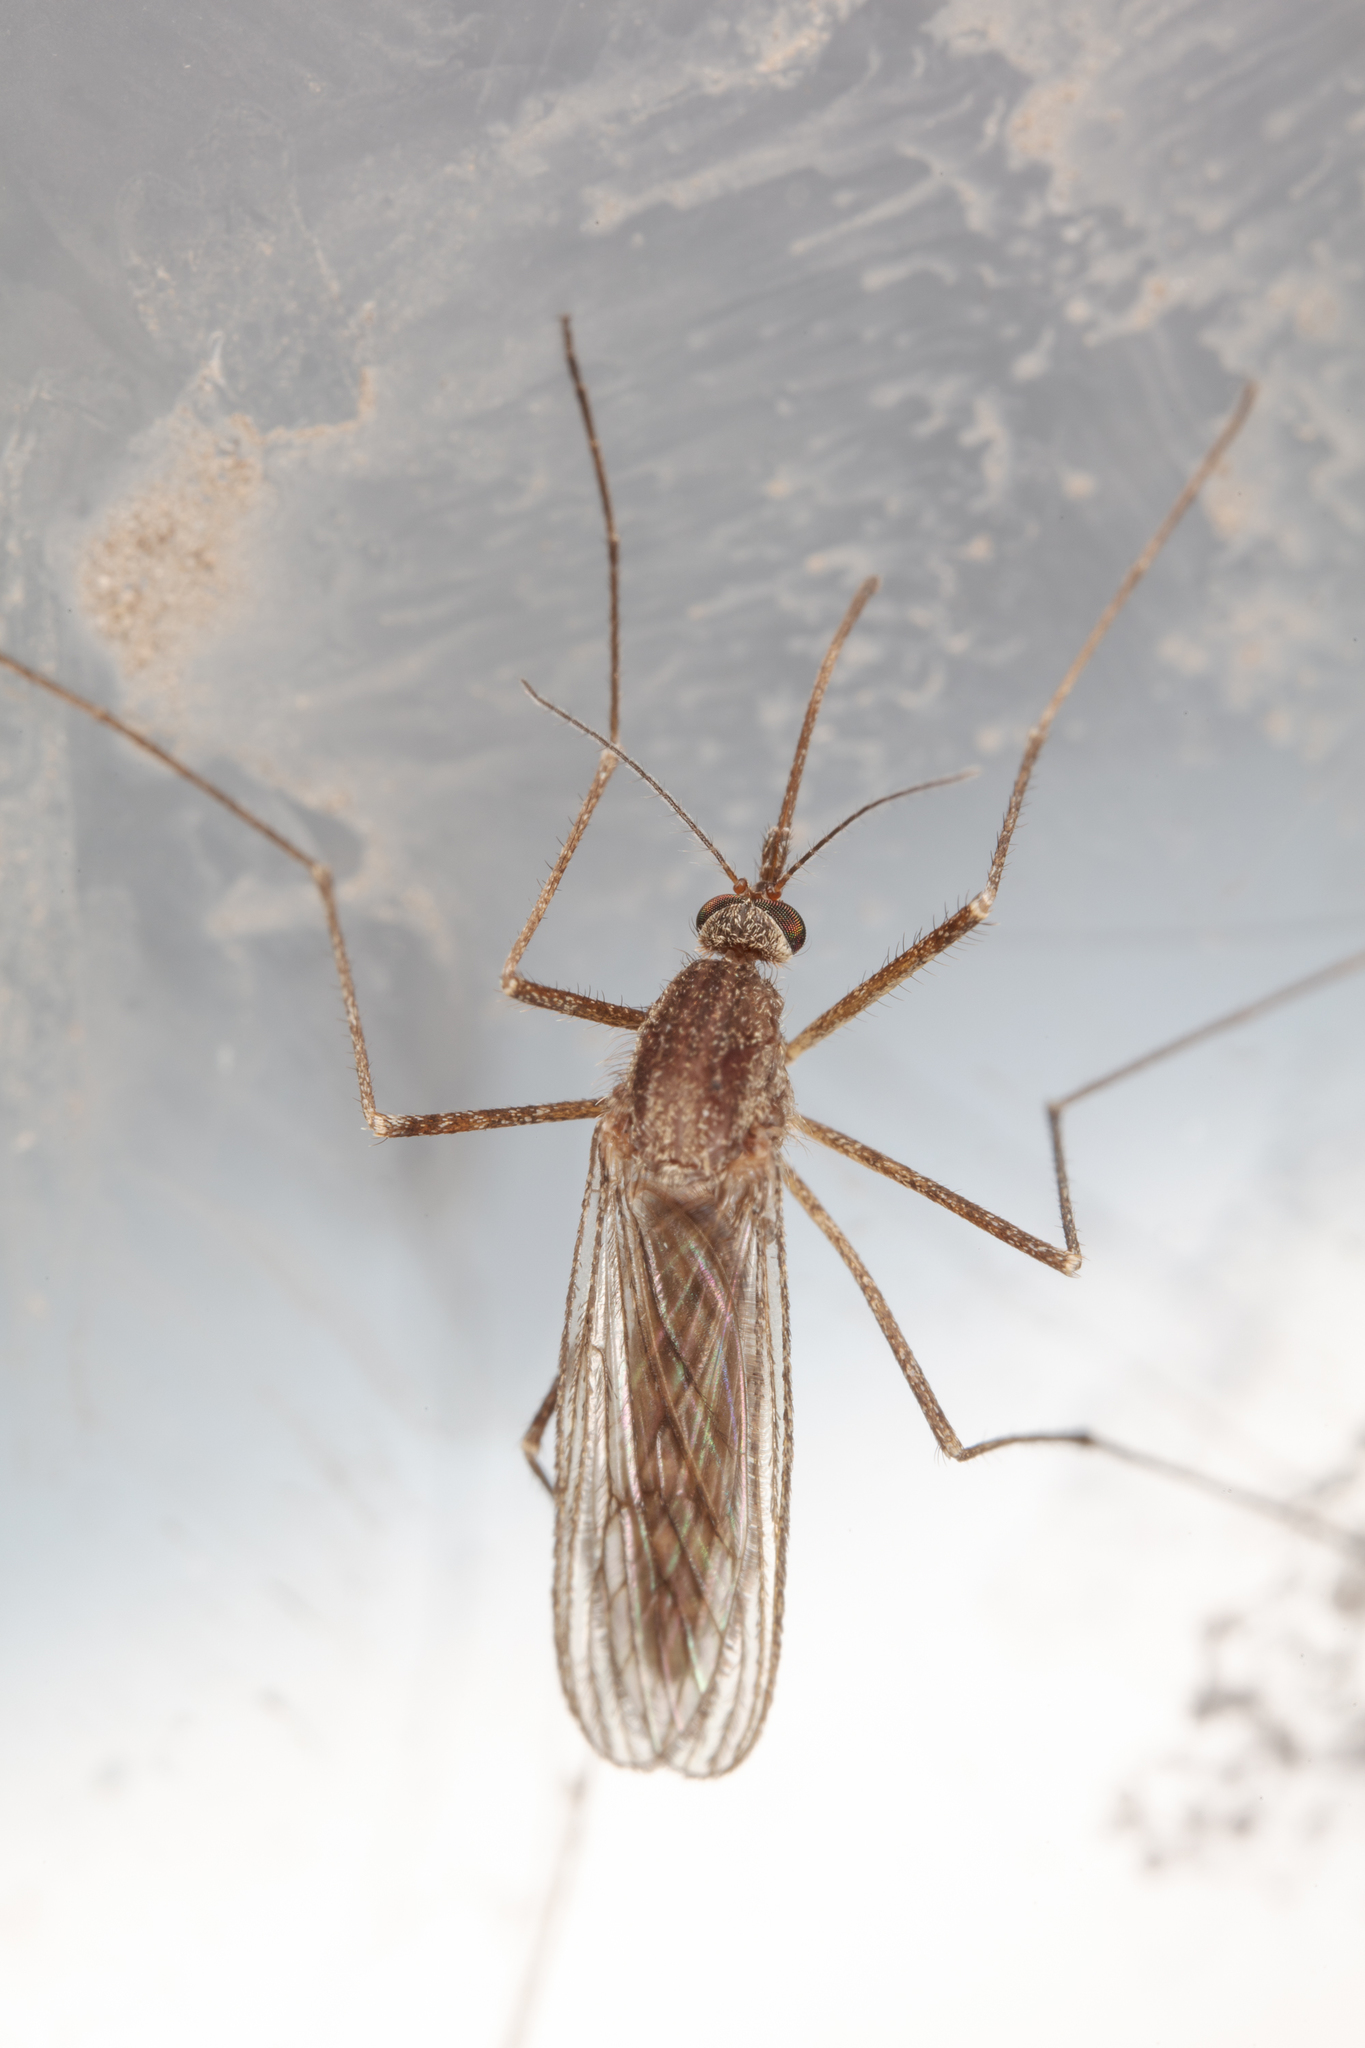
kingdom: Animalia
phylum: Arthropoda
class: Insecta
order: Diptera
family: Culicidae
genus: Culiseta
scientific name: Culiseta inornata
